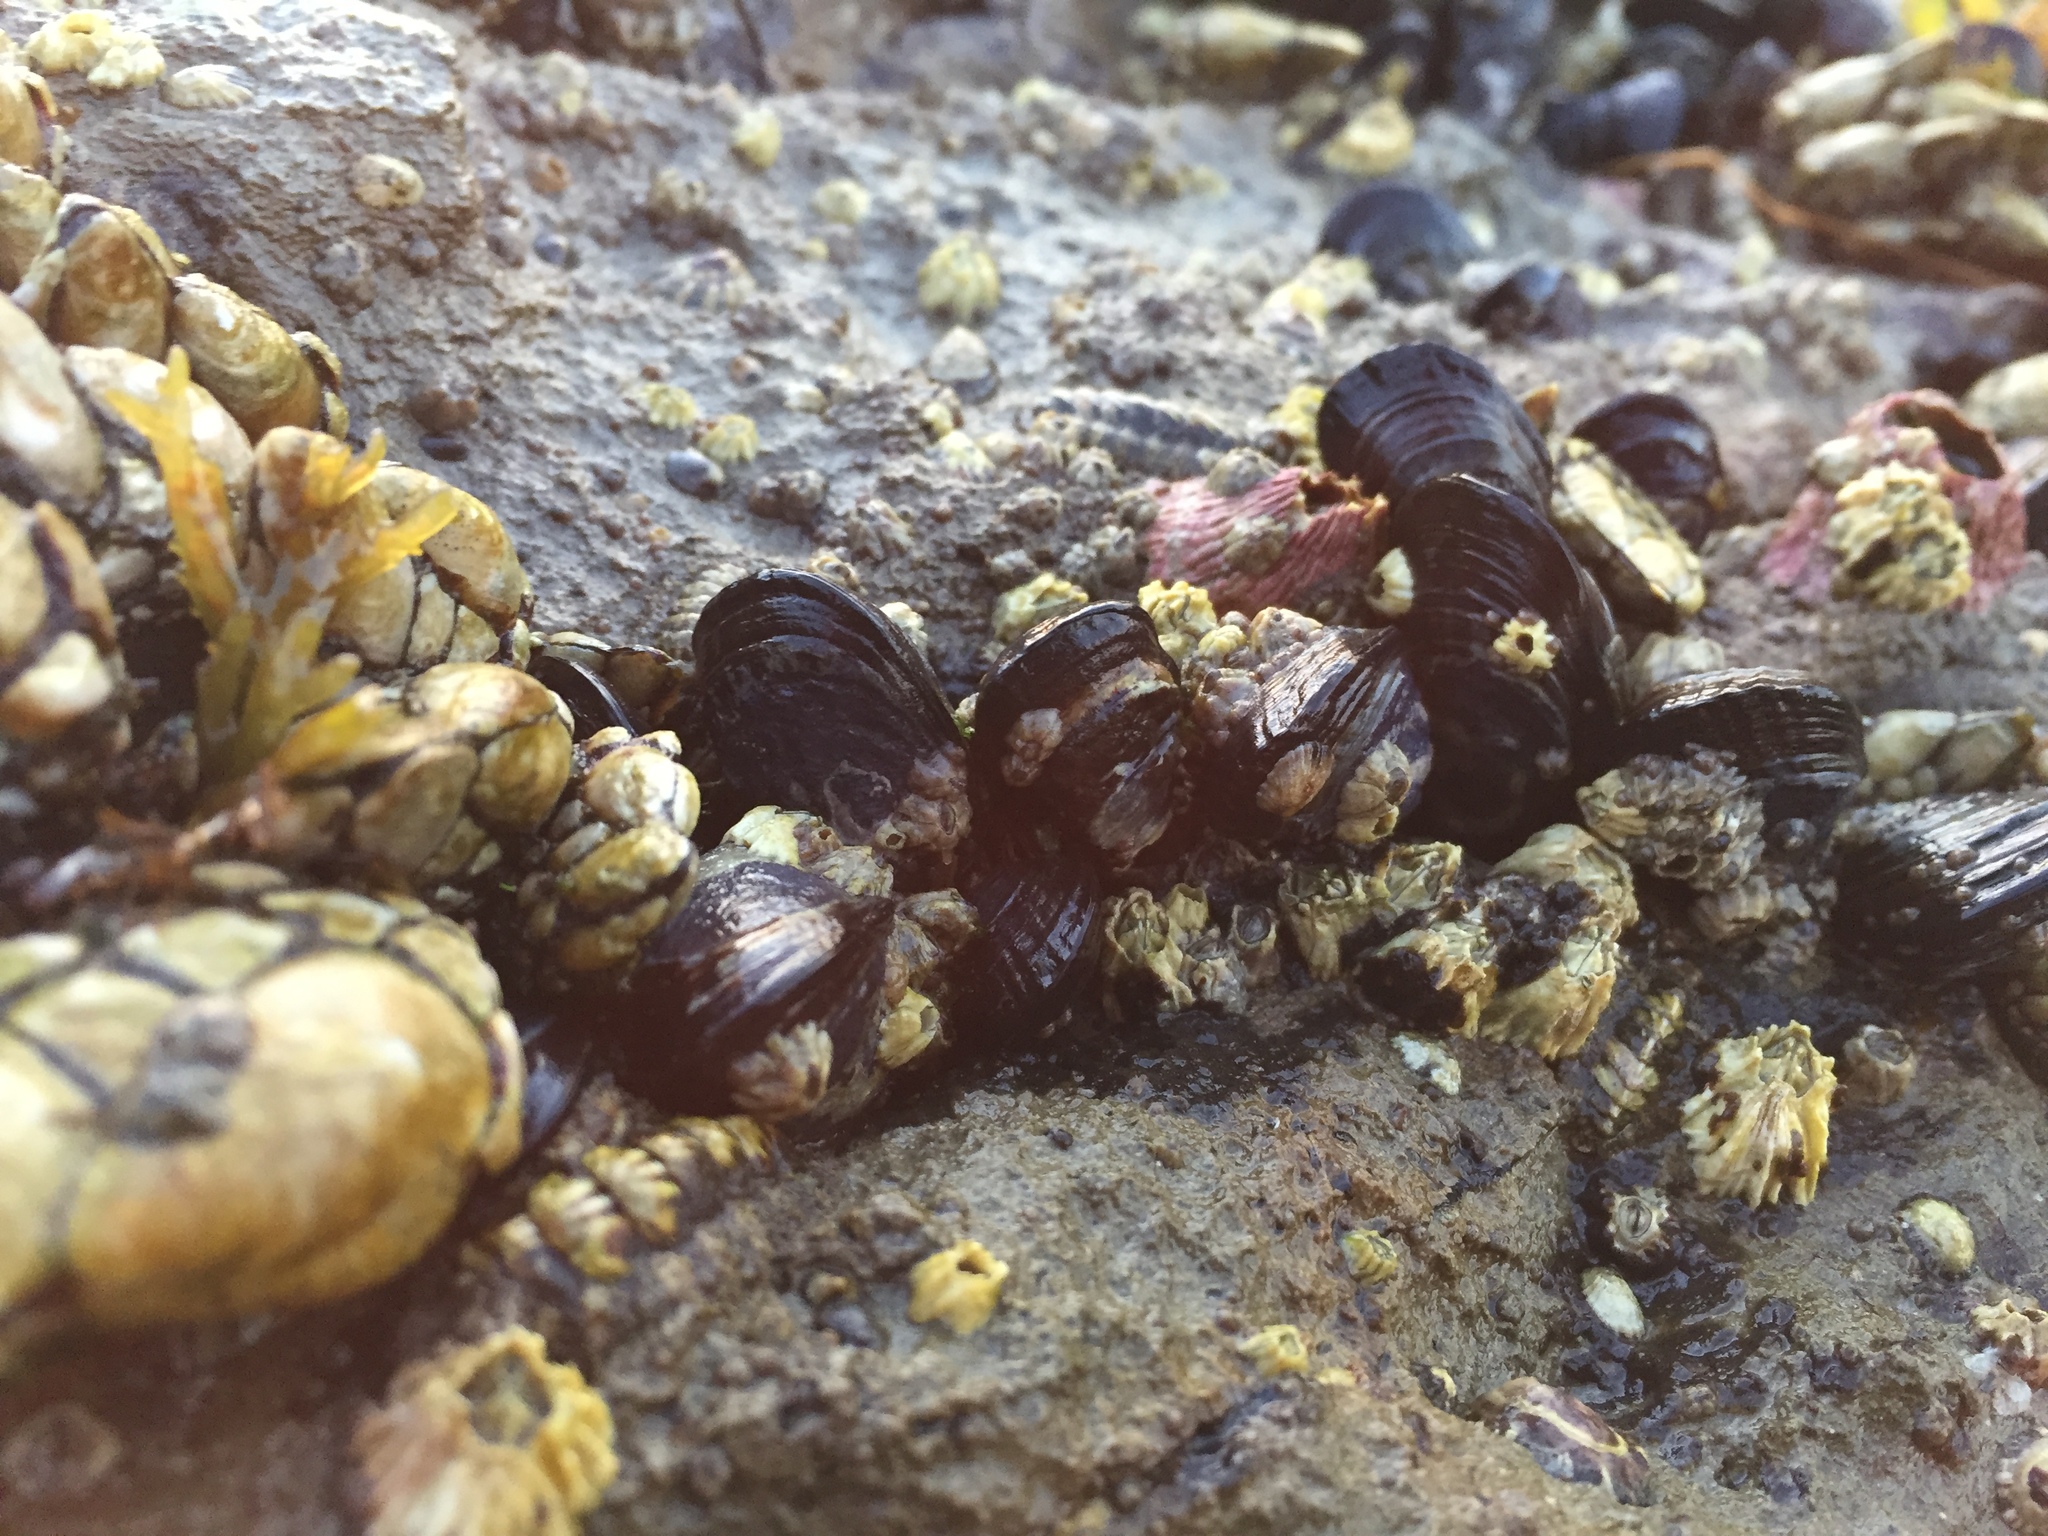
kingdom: Animalia
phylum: Mollusca
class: Bivalvia
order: Mytilida
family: Mytilidae
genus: Mytilus
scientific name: Mytilus californianus
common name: California mussel
